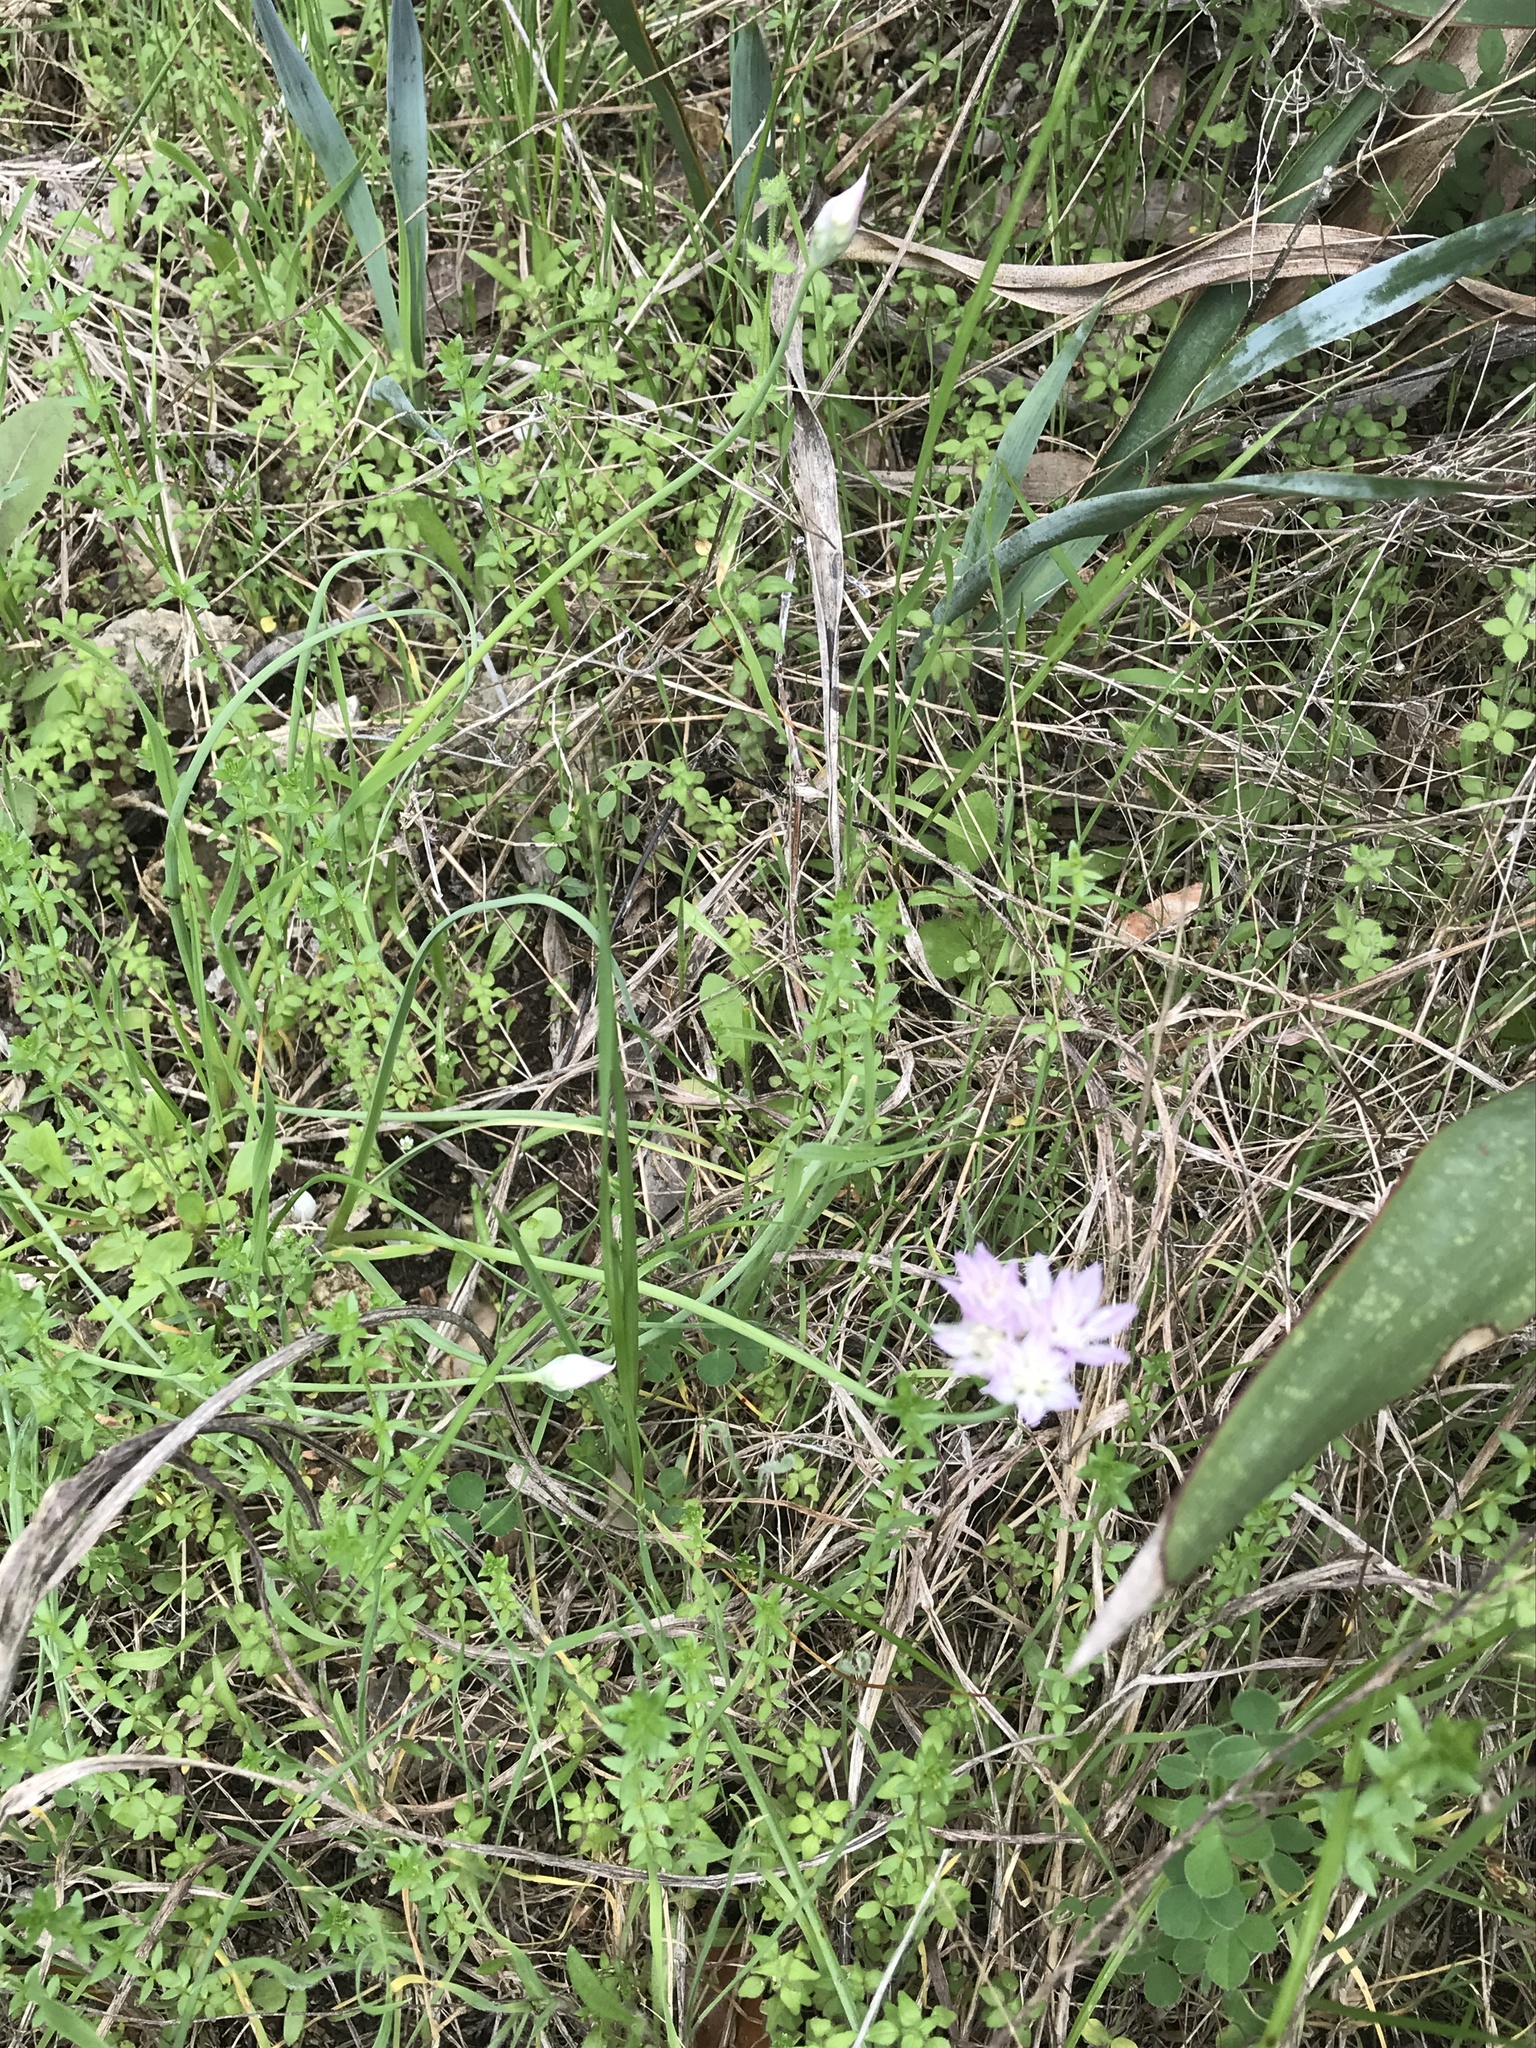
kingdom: Plantae
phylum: Tracheophyta
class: Liliopsida
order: Asparagales
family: Amaryllidaceae
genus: Allium
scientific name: Allium drummondii
